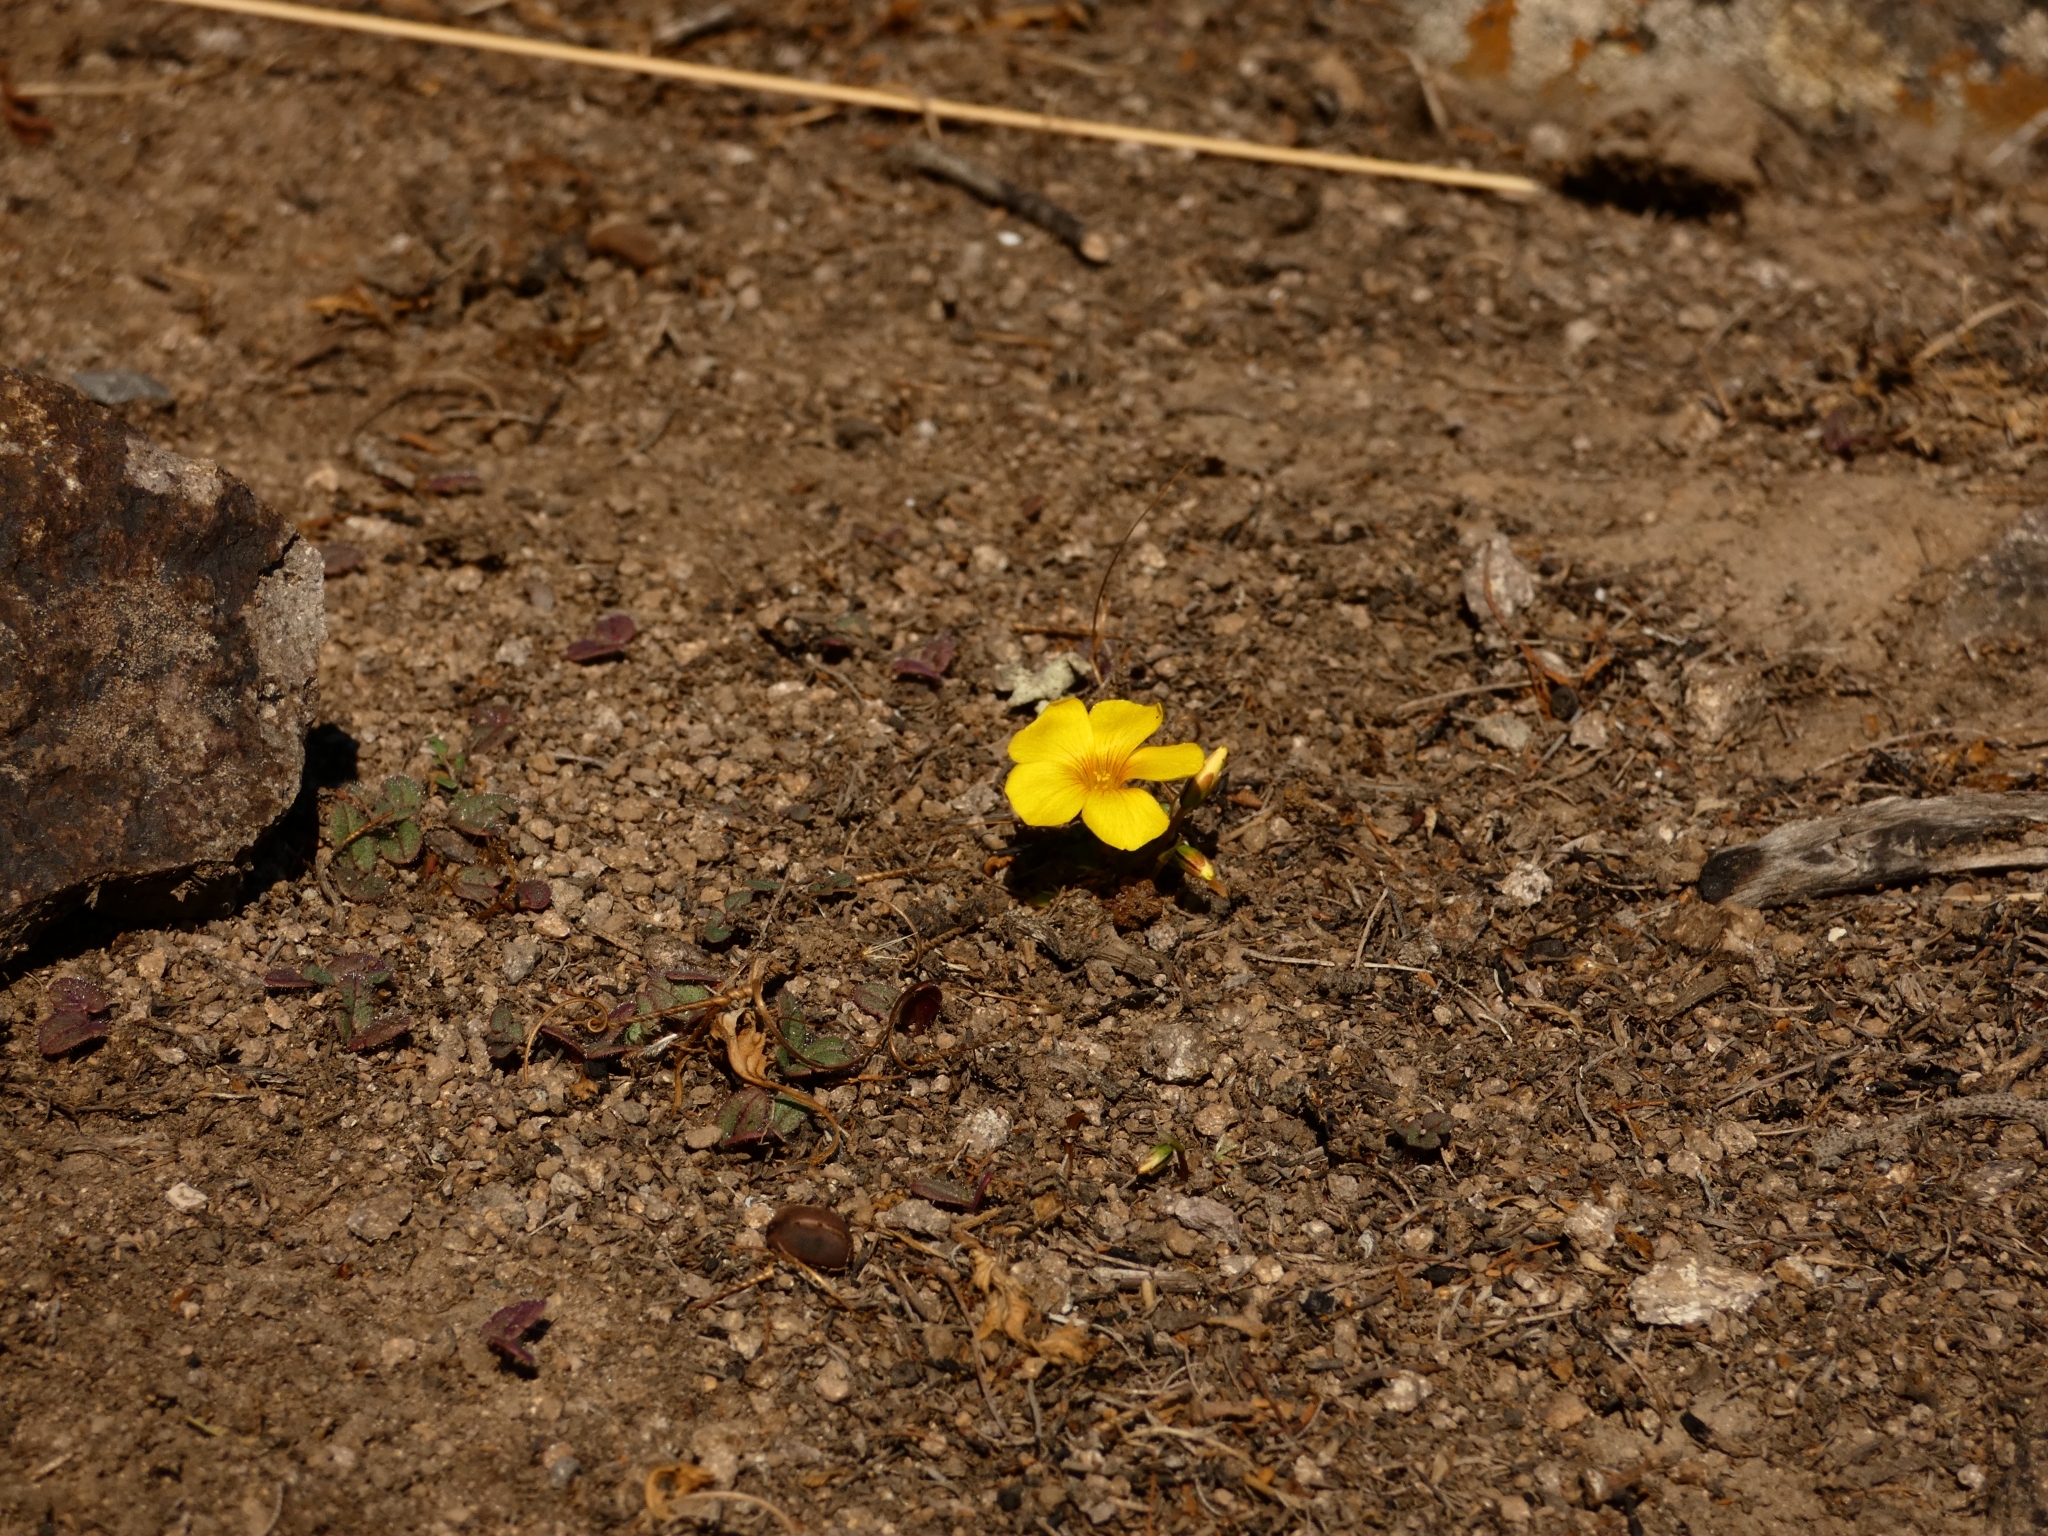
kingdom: Plantae
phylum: Tracheophyta
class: Magnoliopsida
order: Oxalidales
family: Oxalidaceae
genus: Oxalis
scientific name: Oxalis perdicaria
